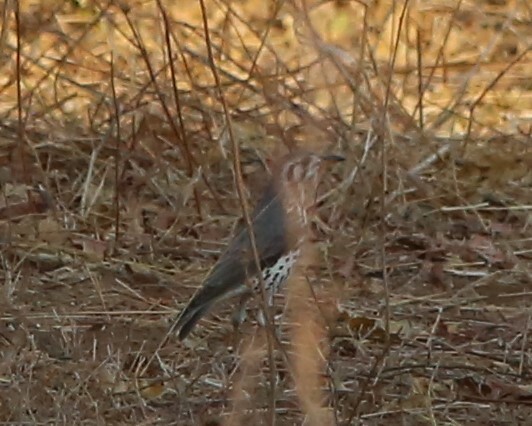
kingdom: Animalia
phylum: Chordata
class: Aves
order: Passeriformes
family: Turdidae
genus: Psophocichla
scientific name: Psophocichla litsitsirupa
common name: Groundscraper thrush
